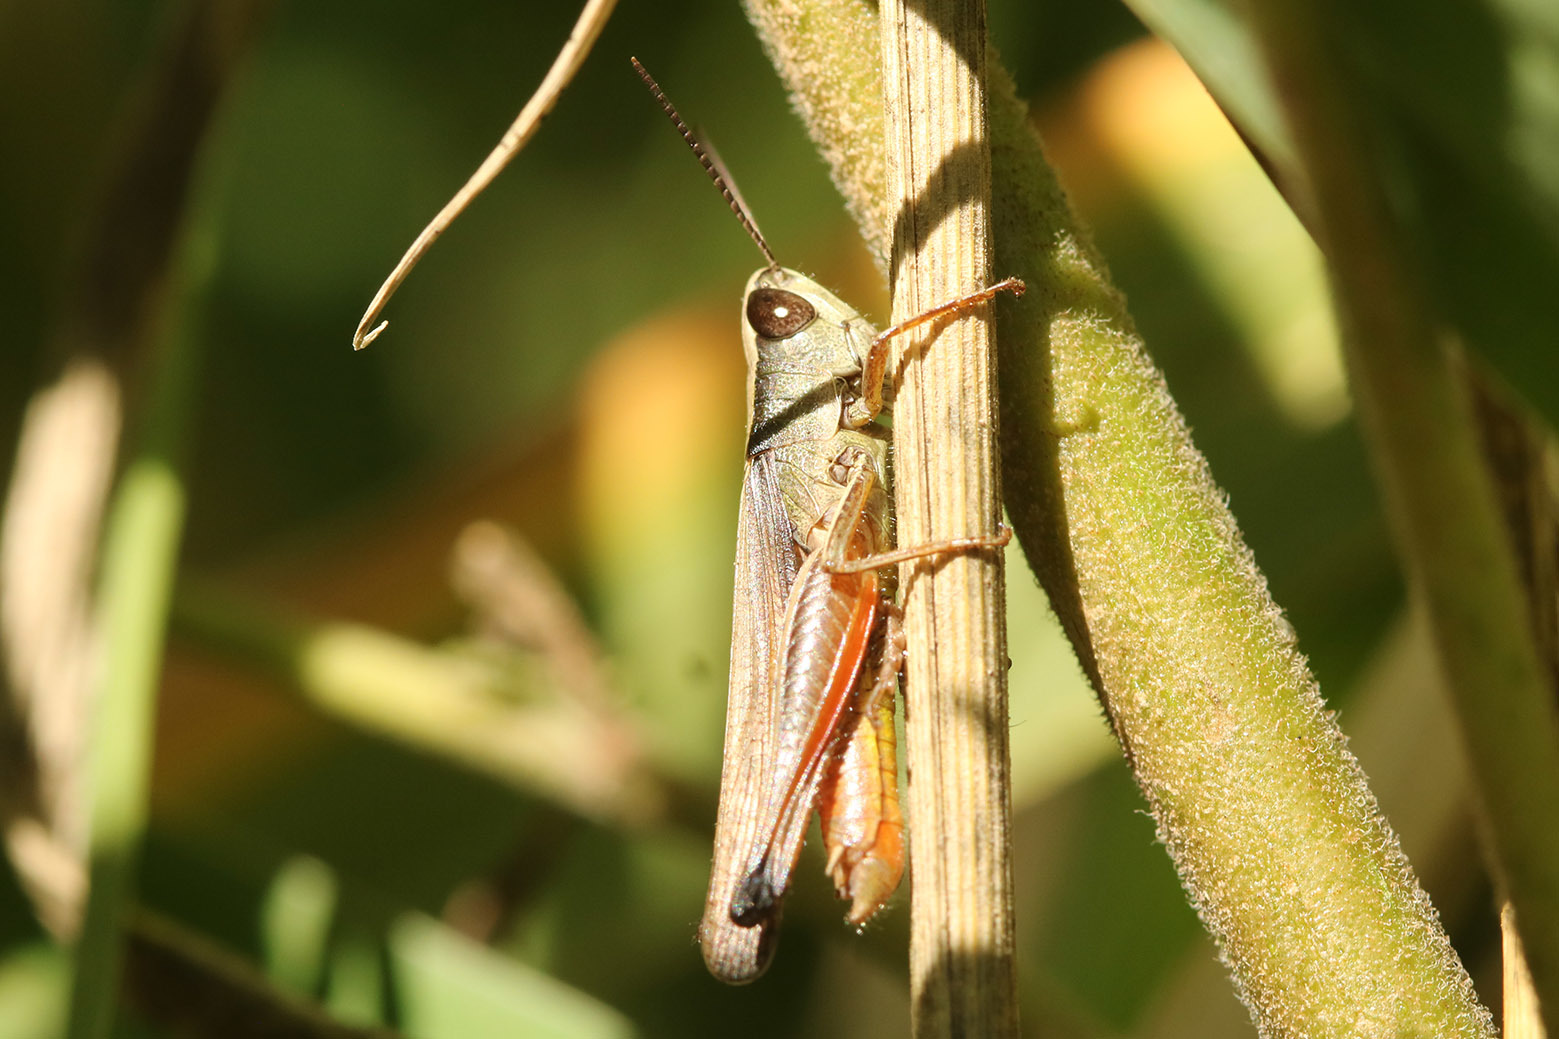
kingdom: Animalia
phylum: Arthropoda
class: Insecta
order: Orthoptera
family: Acrididae
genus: Amblytropidia
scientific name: Amblytropidia australis
